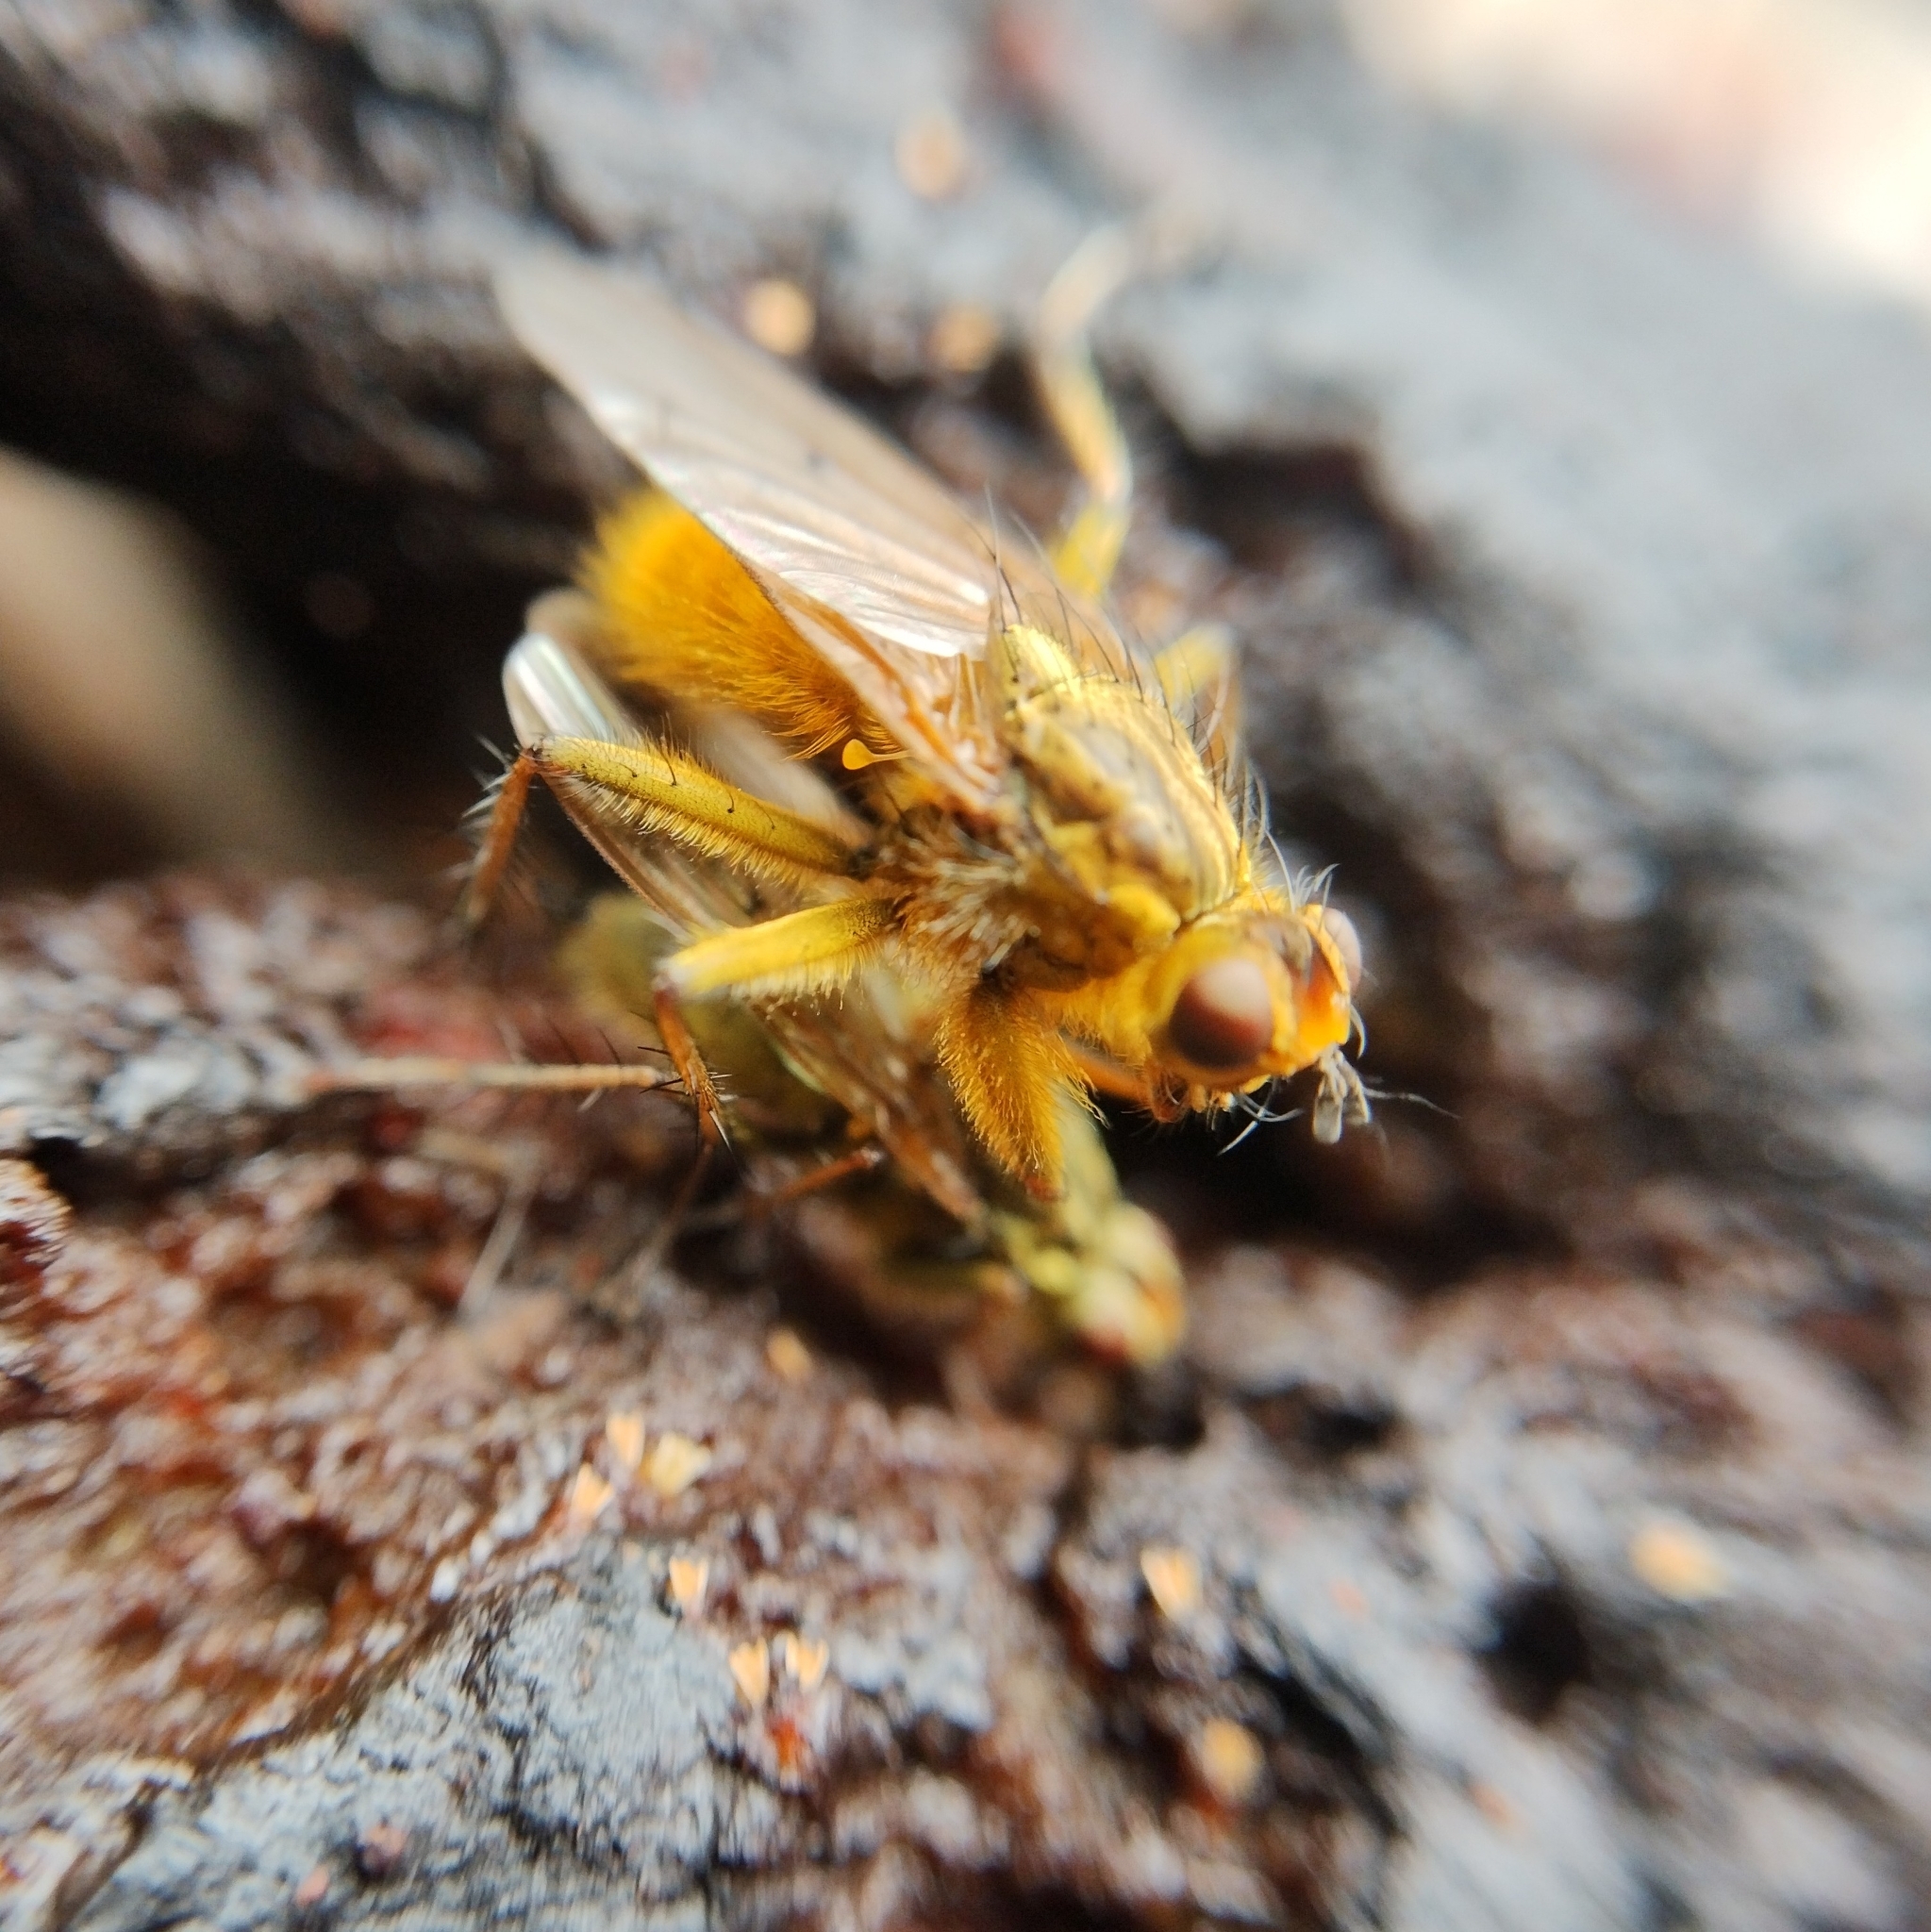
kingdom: Animalia
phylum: Arthropoda
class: Insecta
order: Diptera
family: Scathophagidae
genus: Scathophaga
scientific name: Scathophaga stercoraria
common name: Yellow dung fly
